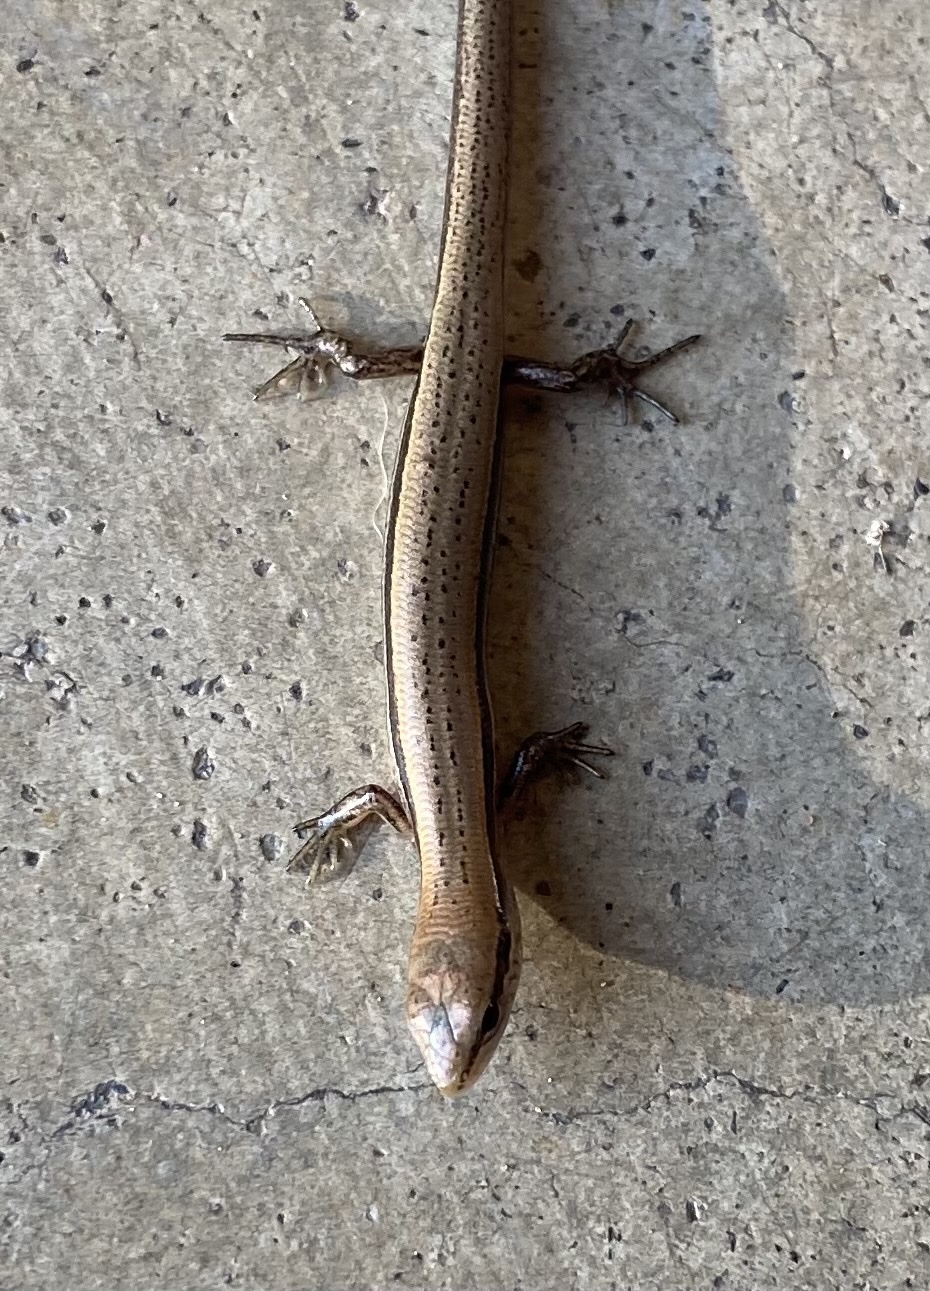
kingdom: Animalia
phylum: Chordata
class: Squamata
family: Scincidae
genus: Scincella
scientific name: Scincella lateralis
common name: Ground skink
